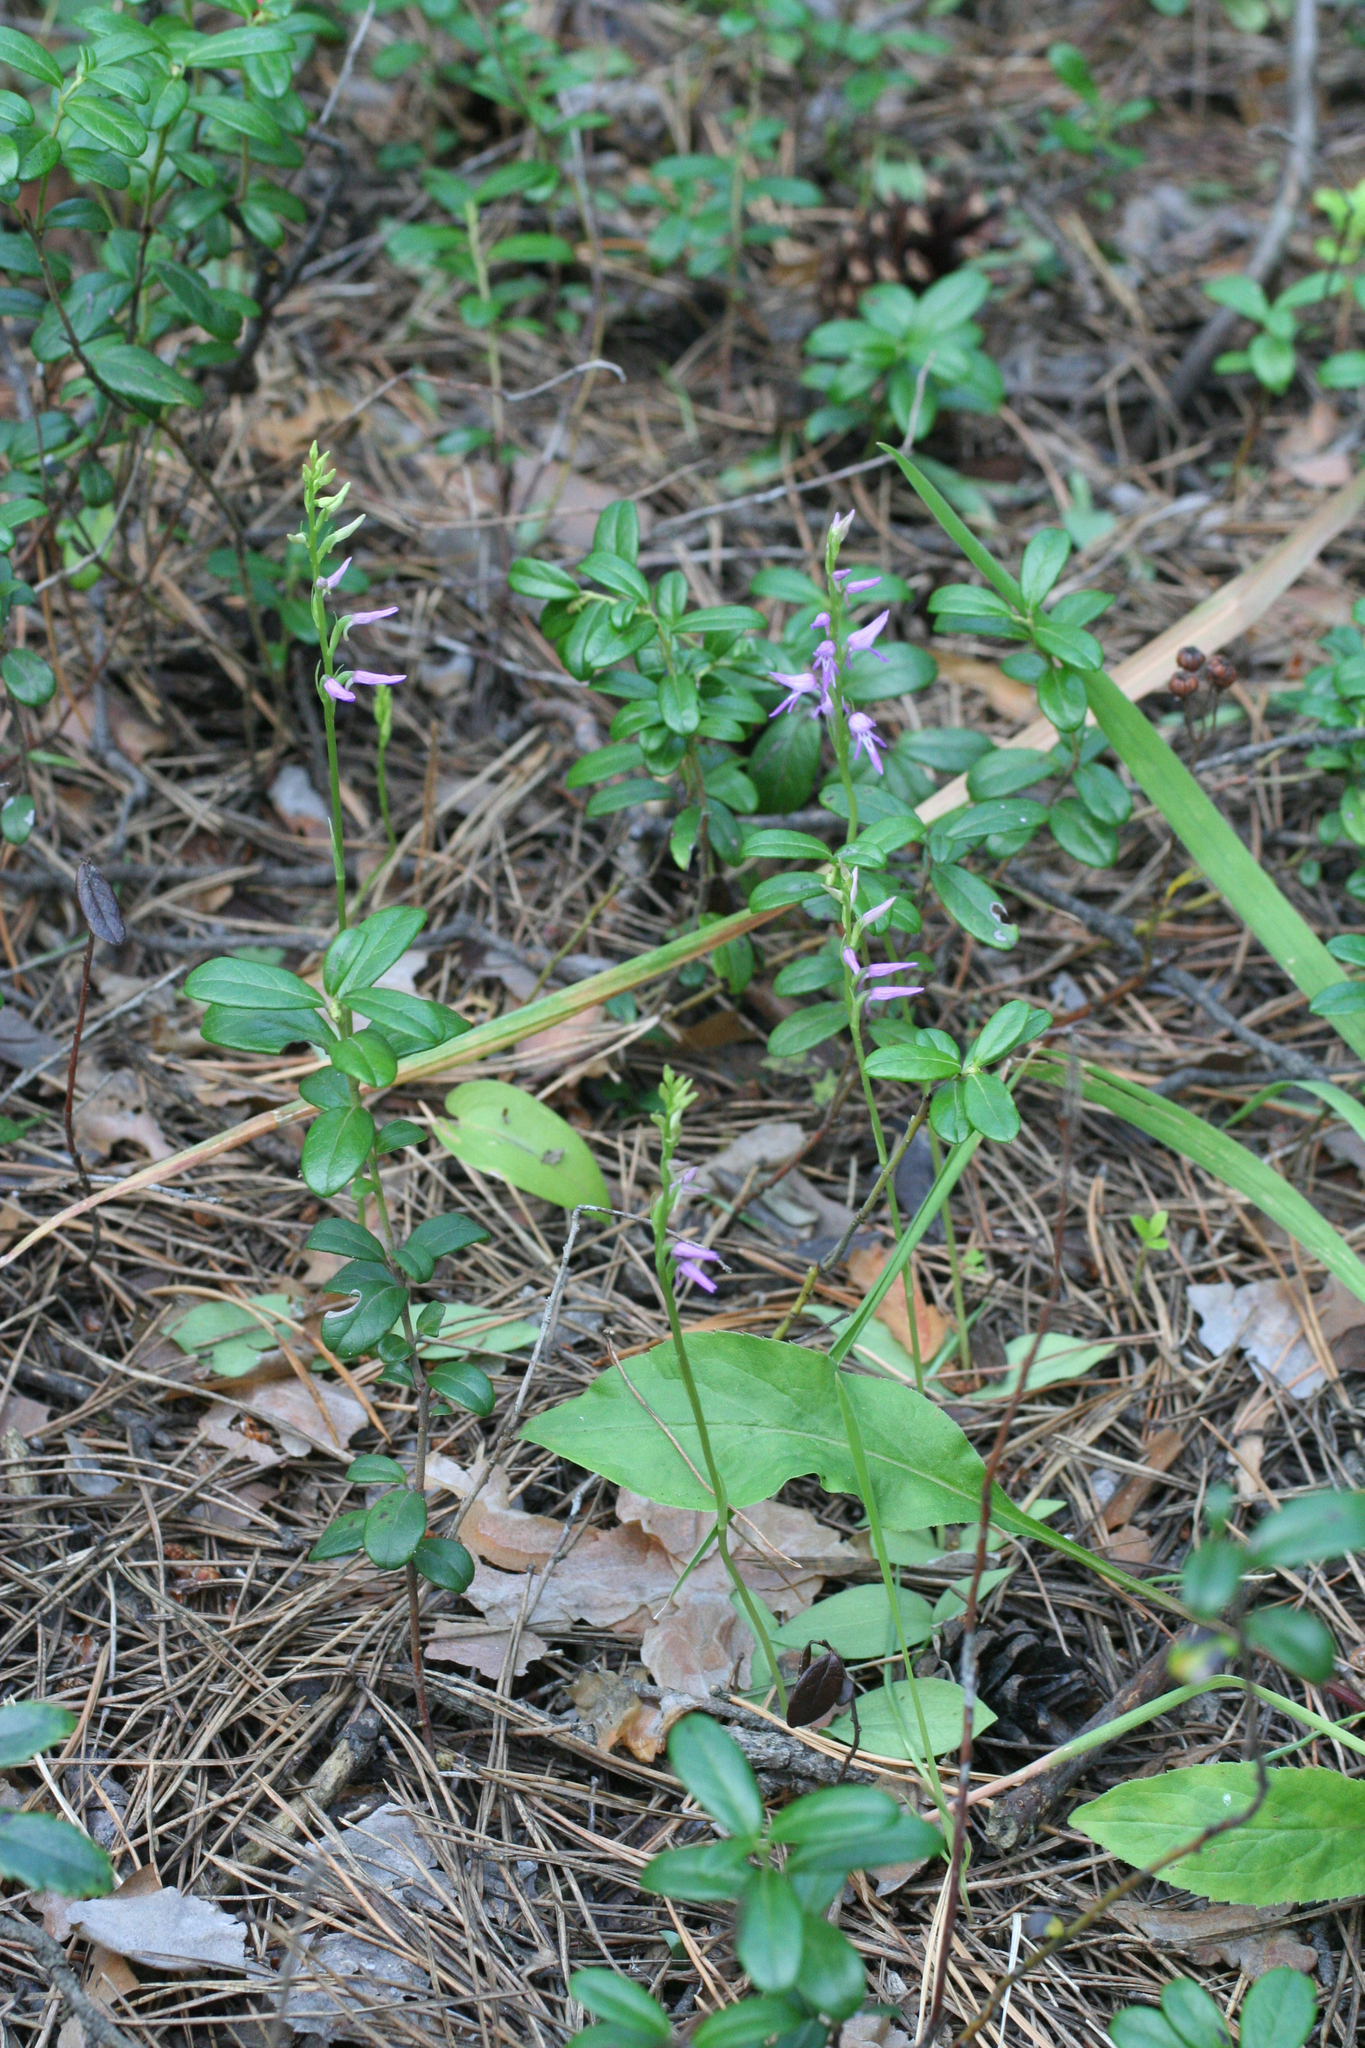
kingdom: Plantae
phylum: Tracheophyta
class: Liliopsida
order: Asparagales
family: Orchidaceae
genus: Hemipilia
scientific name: Hemipilia cucullata
